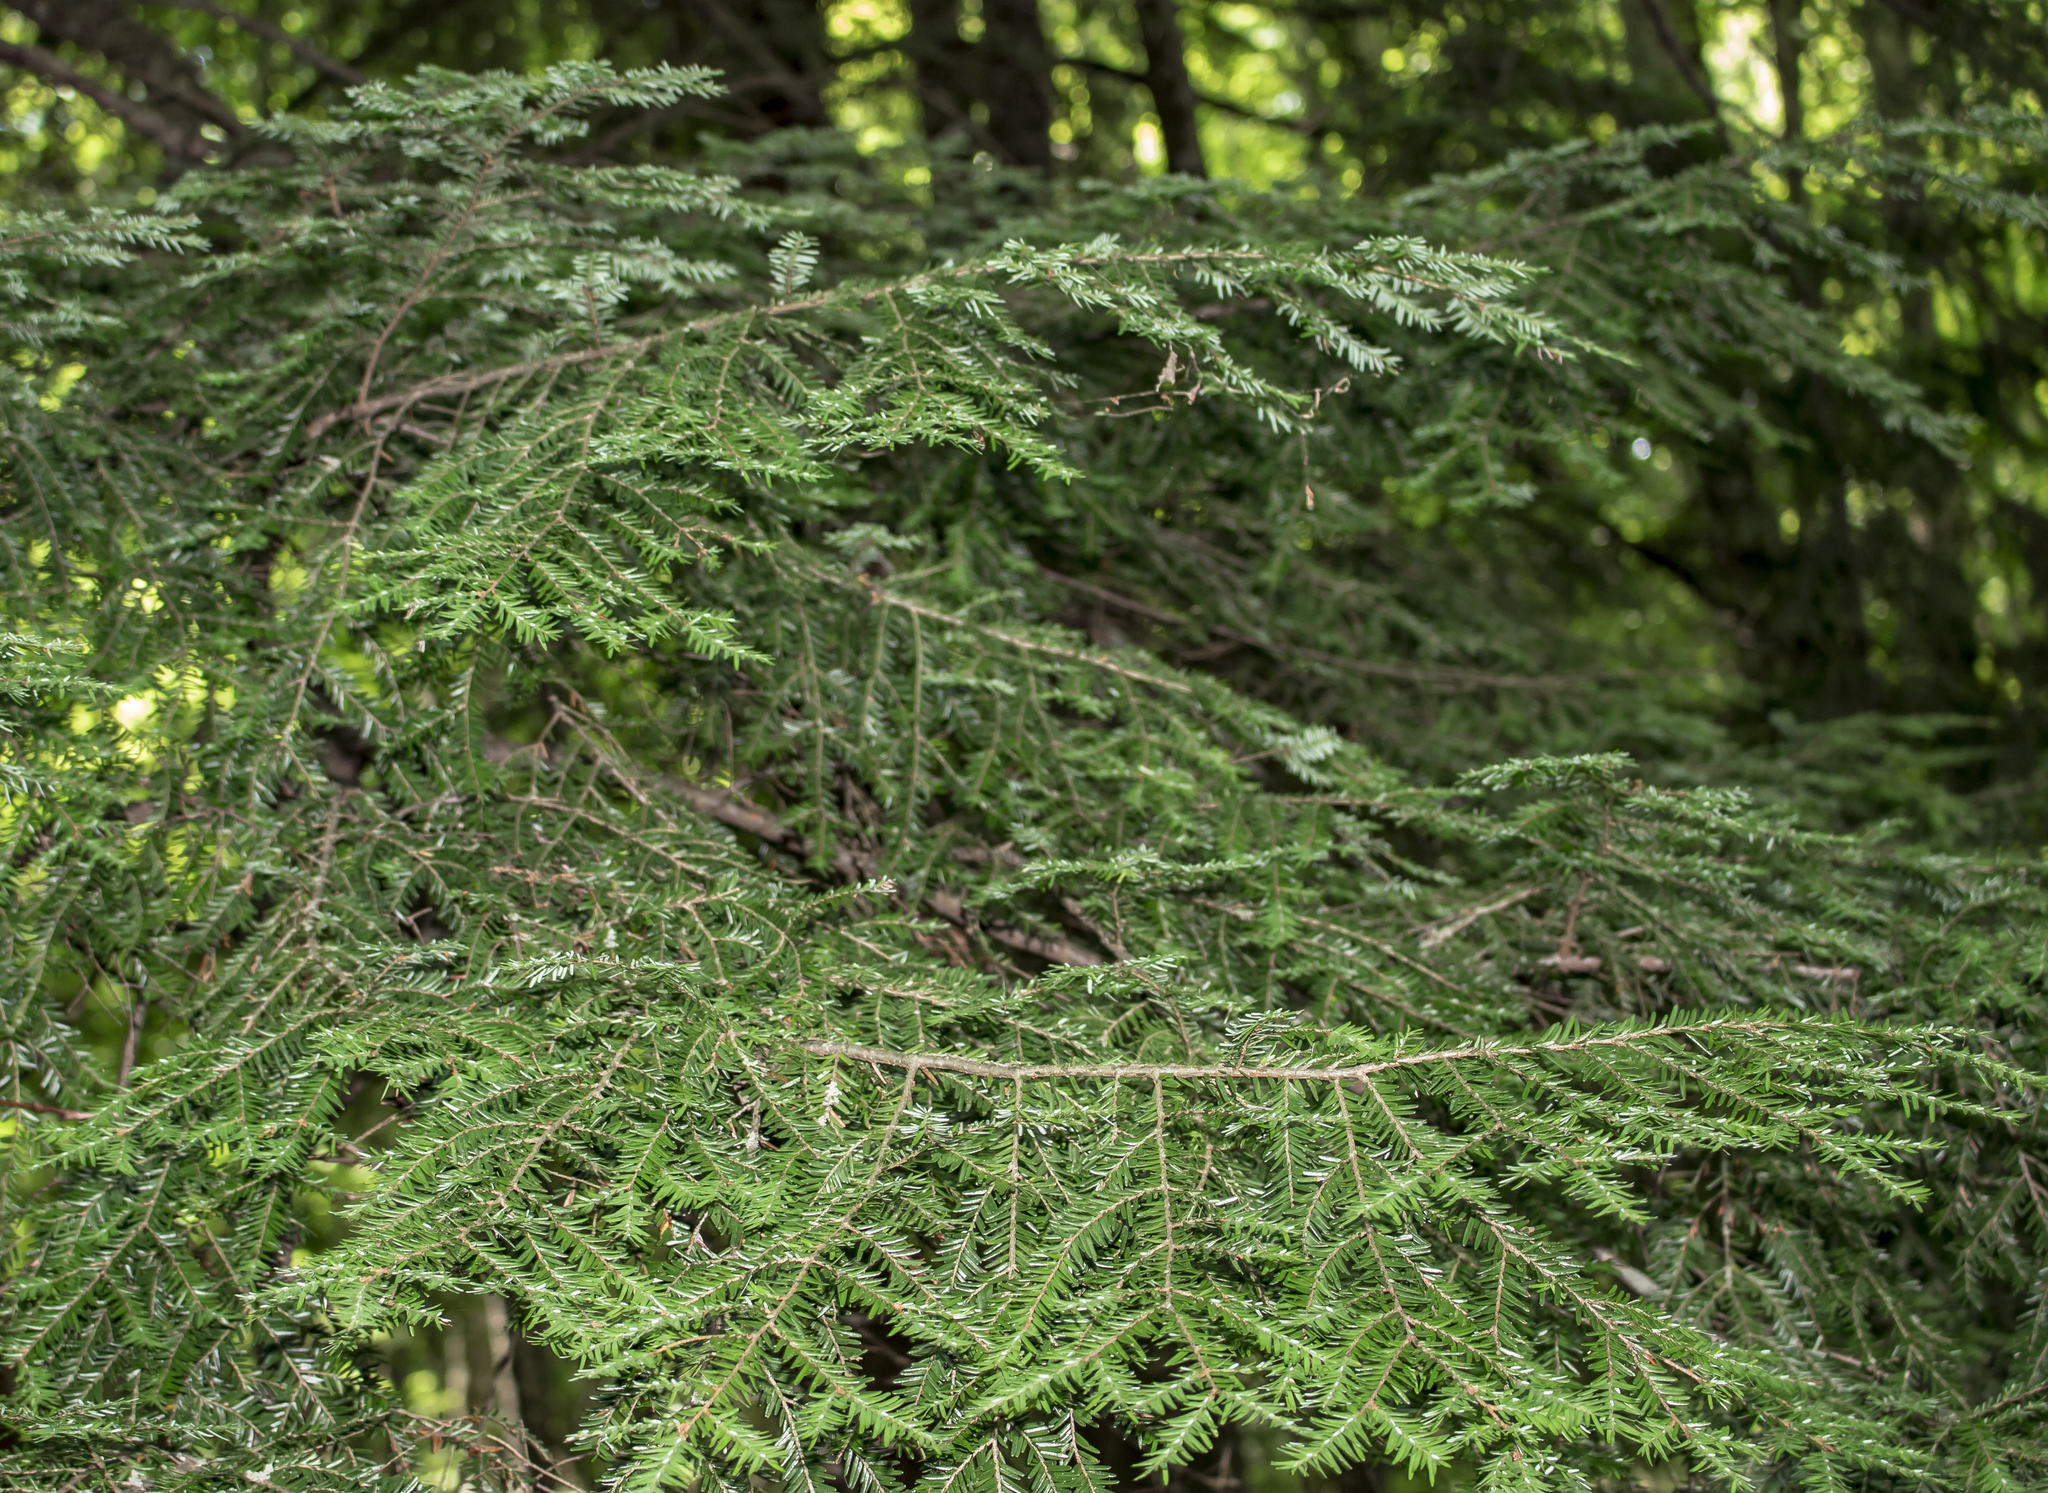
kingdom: Plantae
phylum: Tracheophyta
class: Pinopsida
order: Pinales
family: Pinaceae
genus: Tsuga
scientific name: Tsuga canadensis
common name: Eastern hemlock
